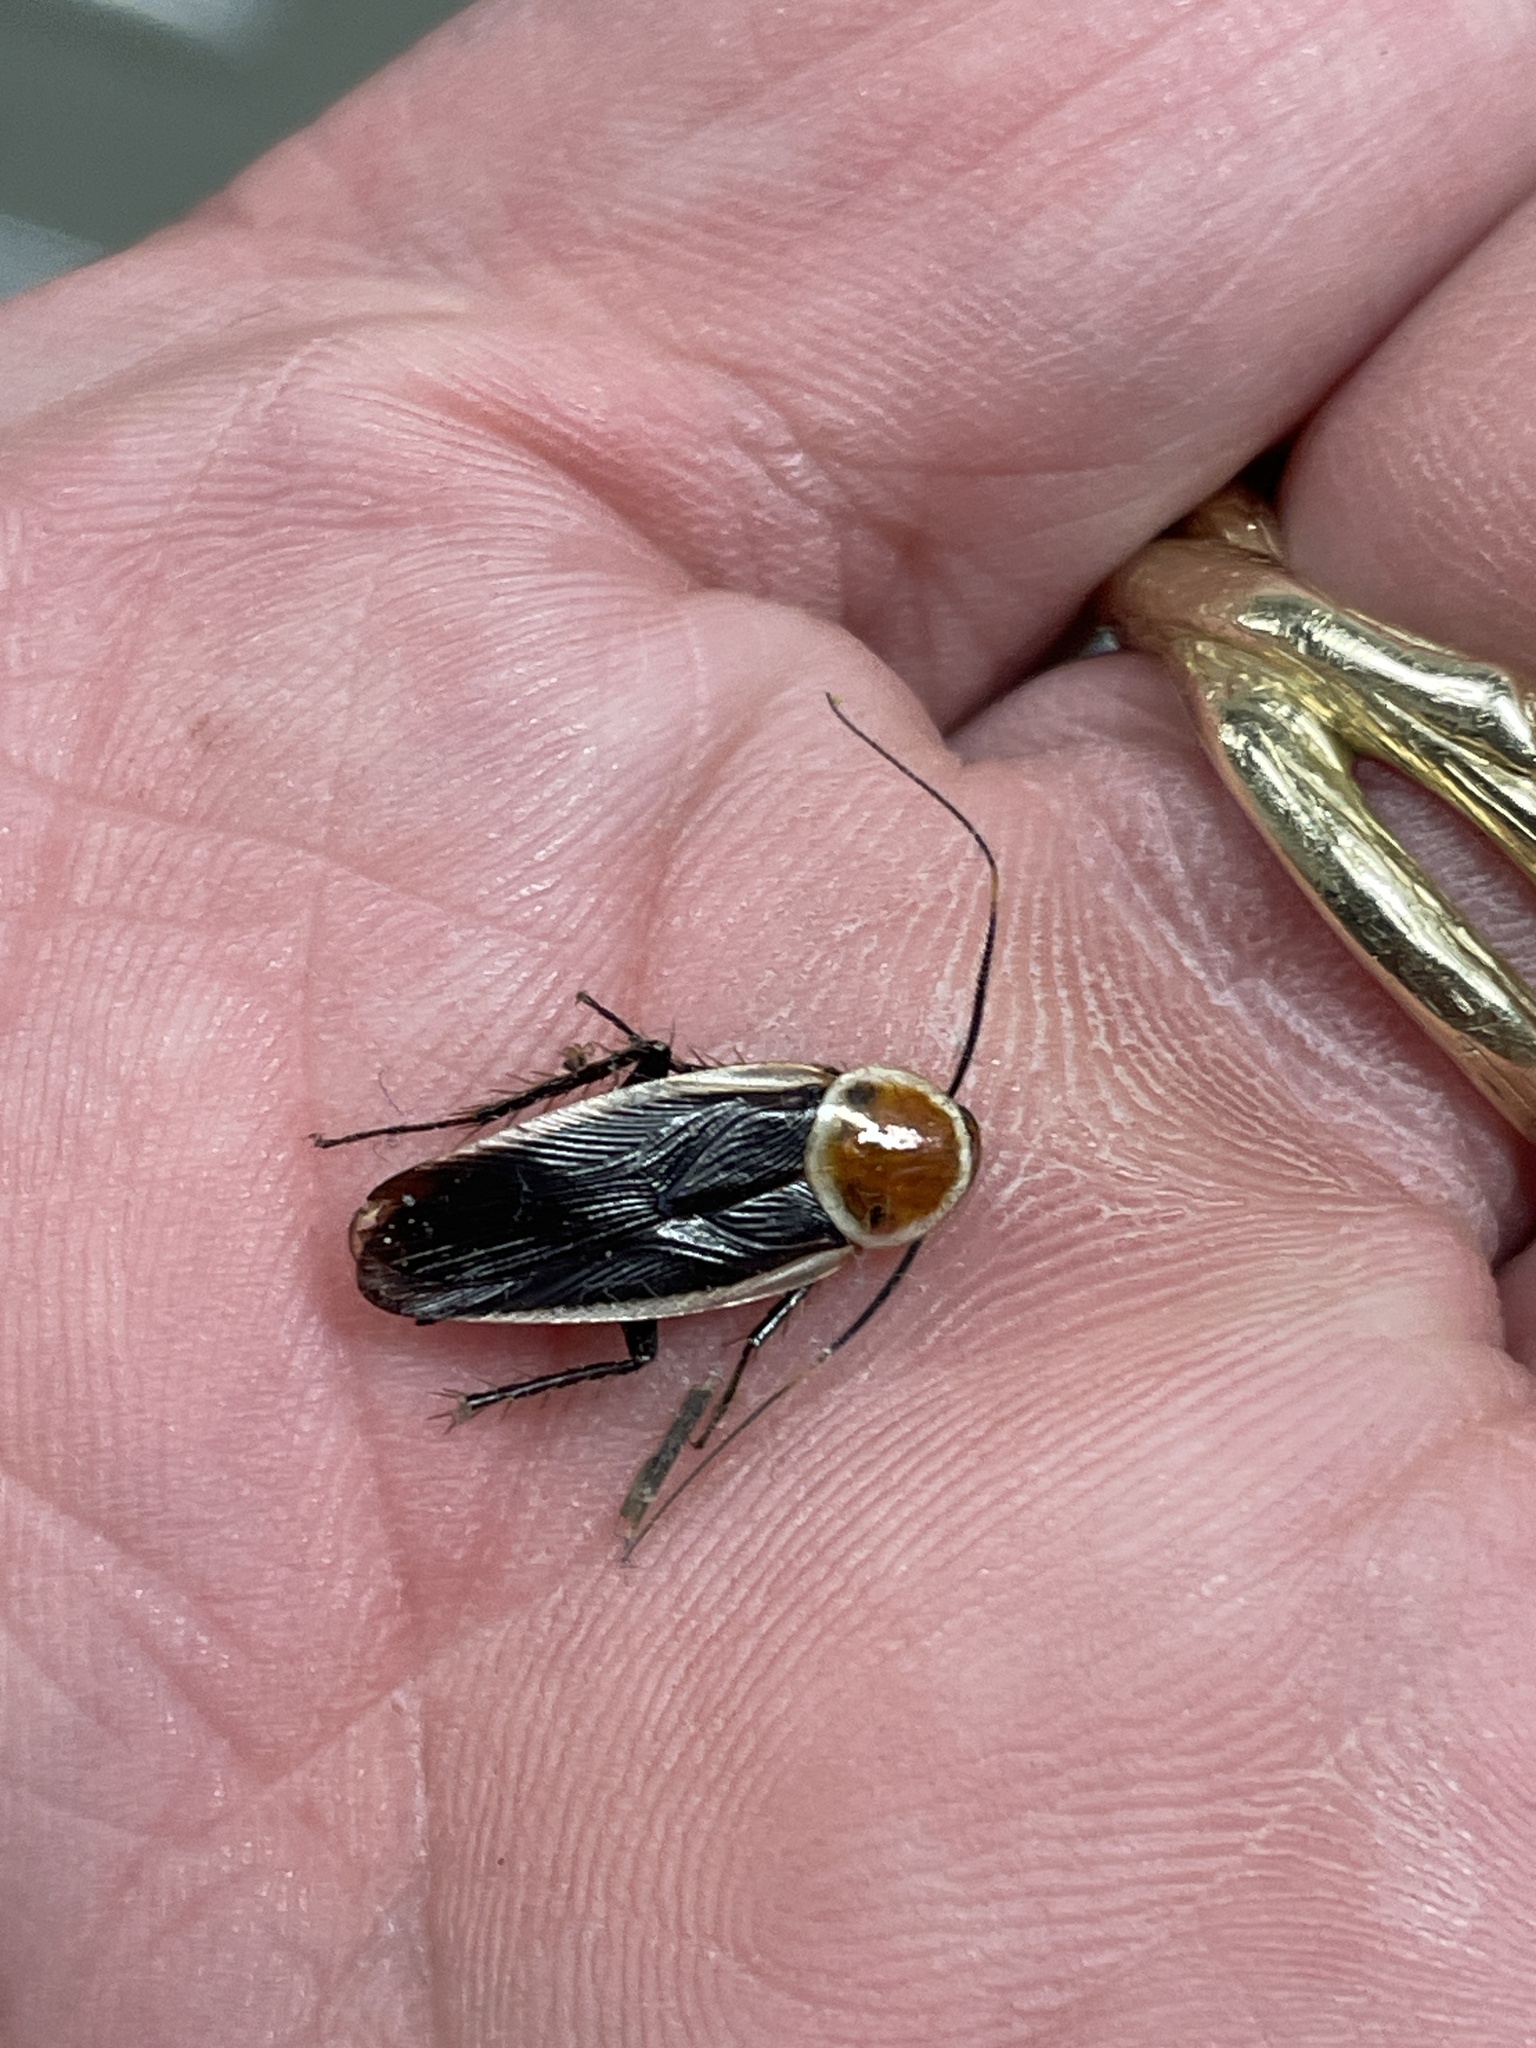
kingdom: Animalia
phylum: Arthropoda
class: Insecta
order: Blattodea
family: Ectobiidae
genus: Pseudomops
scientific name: Pseudomops septentrionalis
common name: Pale-bordered field cockroach
